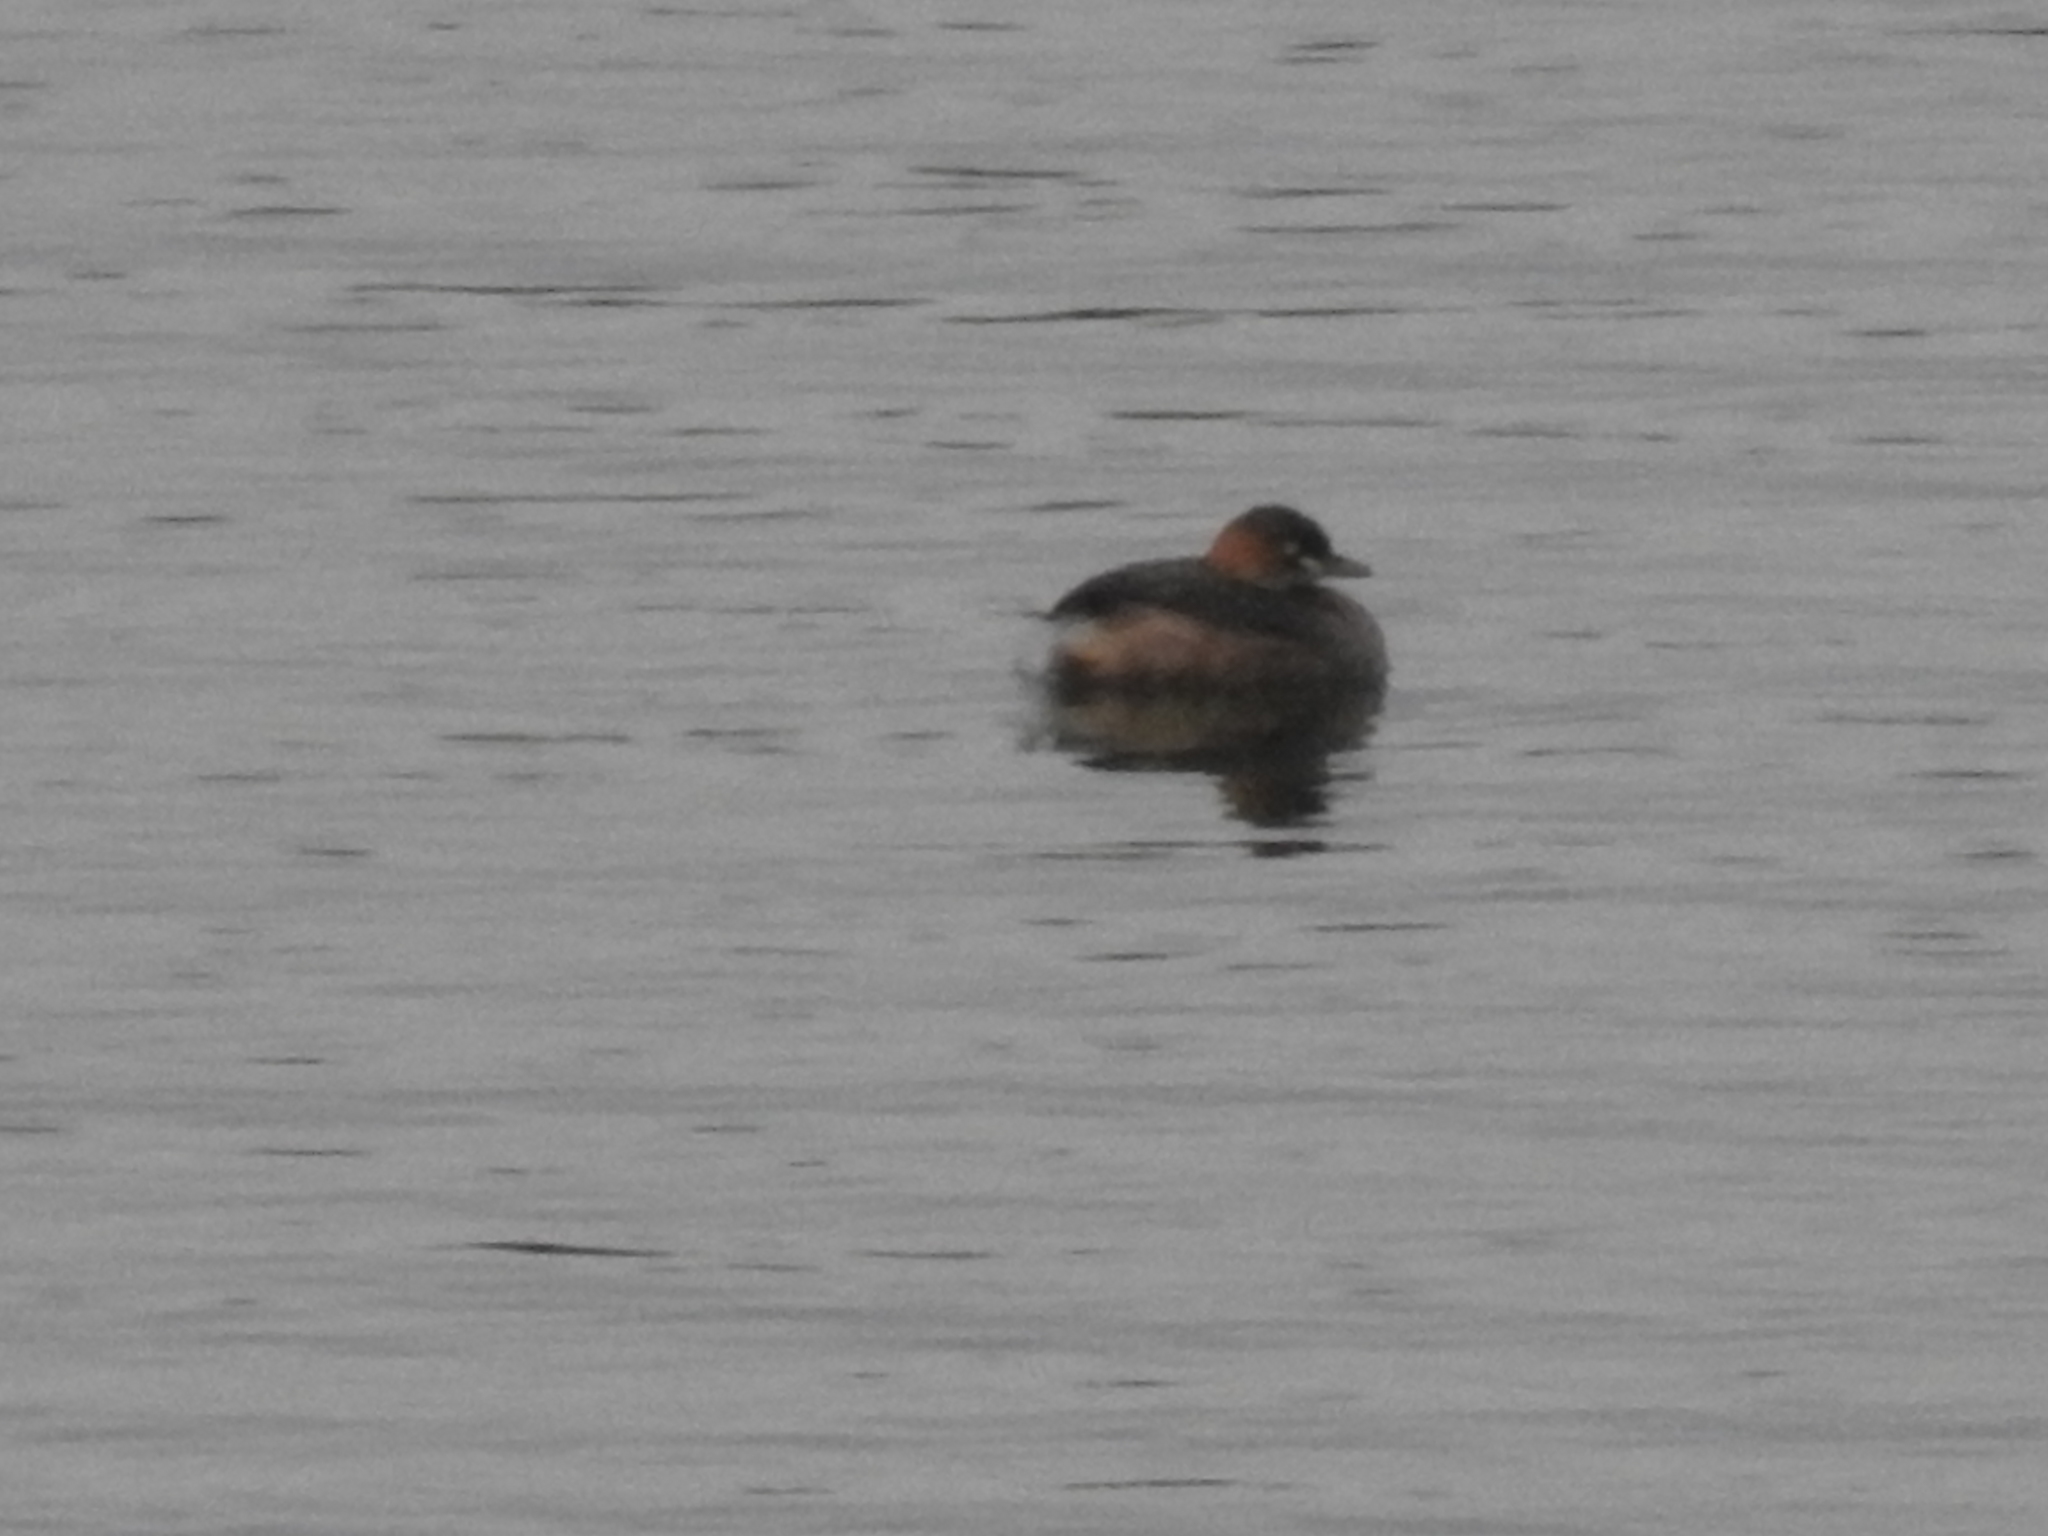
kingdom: Animalia
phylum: Chordata
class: Aves
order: Podicipediformes
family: Podicipedidae
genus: Tachybaptus
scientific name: Tachybaptus ruficollis
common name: Little grebe
